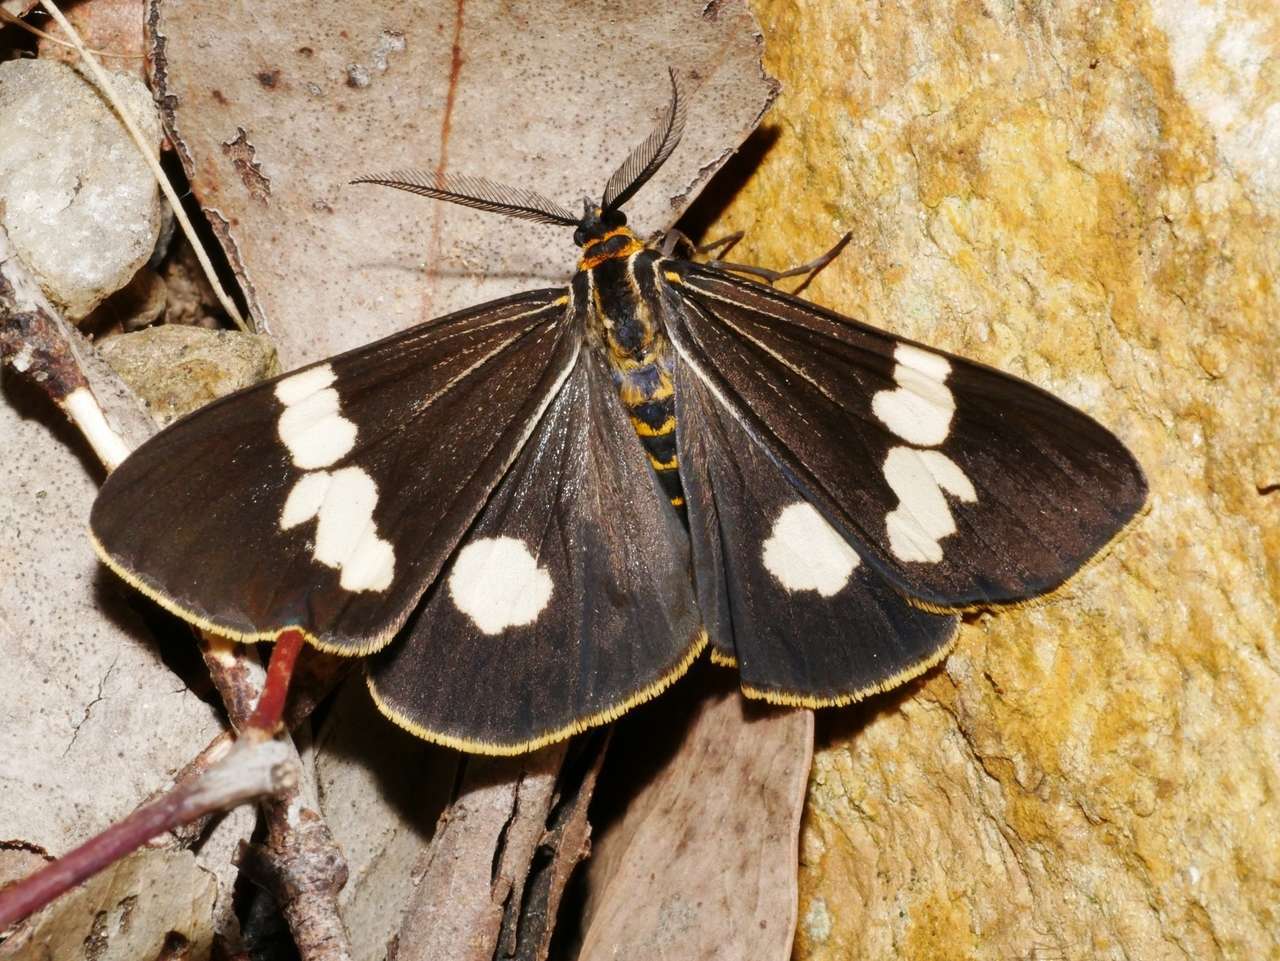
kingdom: Animalia
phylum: Arthropoda
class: Insecta
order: Lepidoptera
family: Erebidae
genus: Nyctemera
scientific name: Nyctemera amicus
